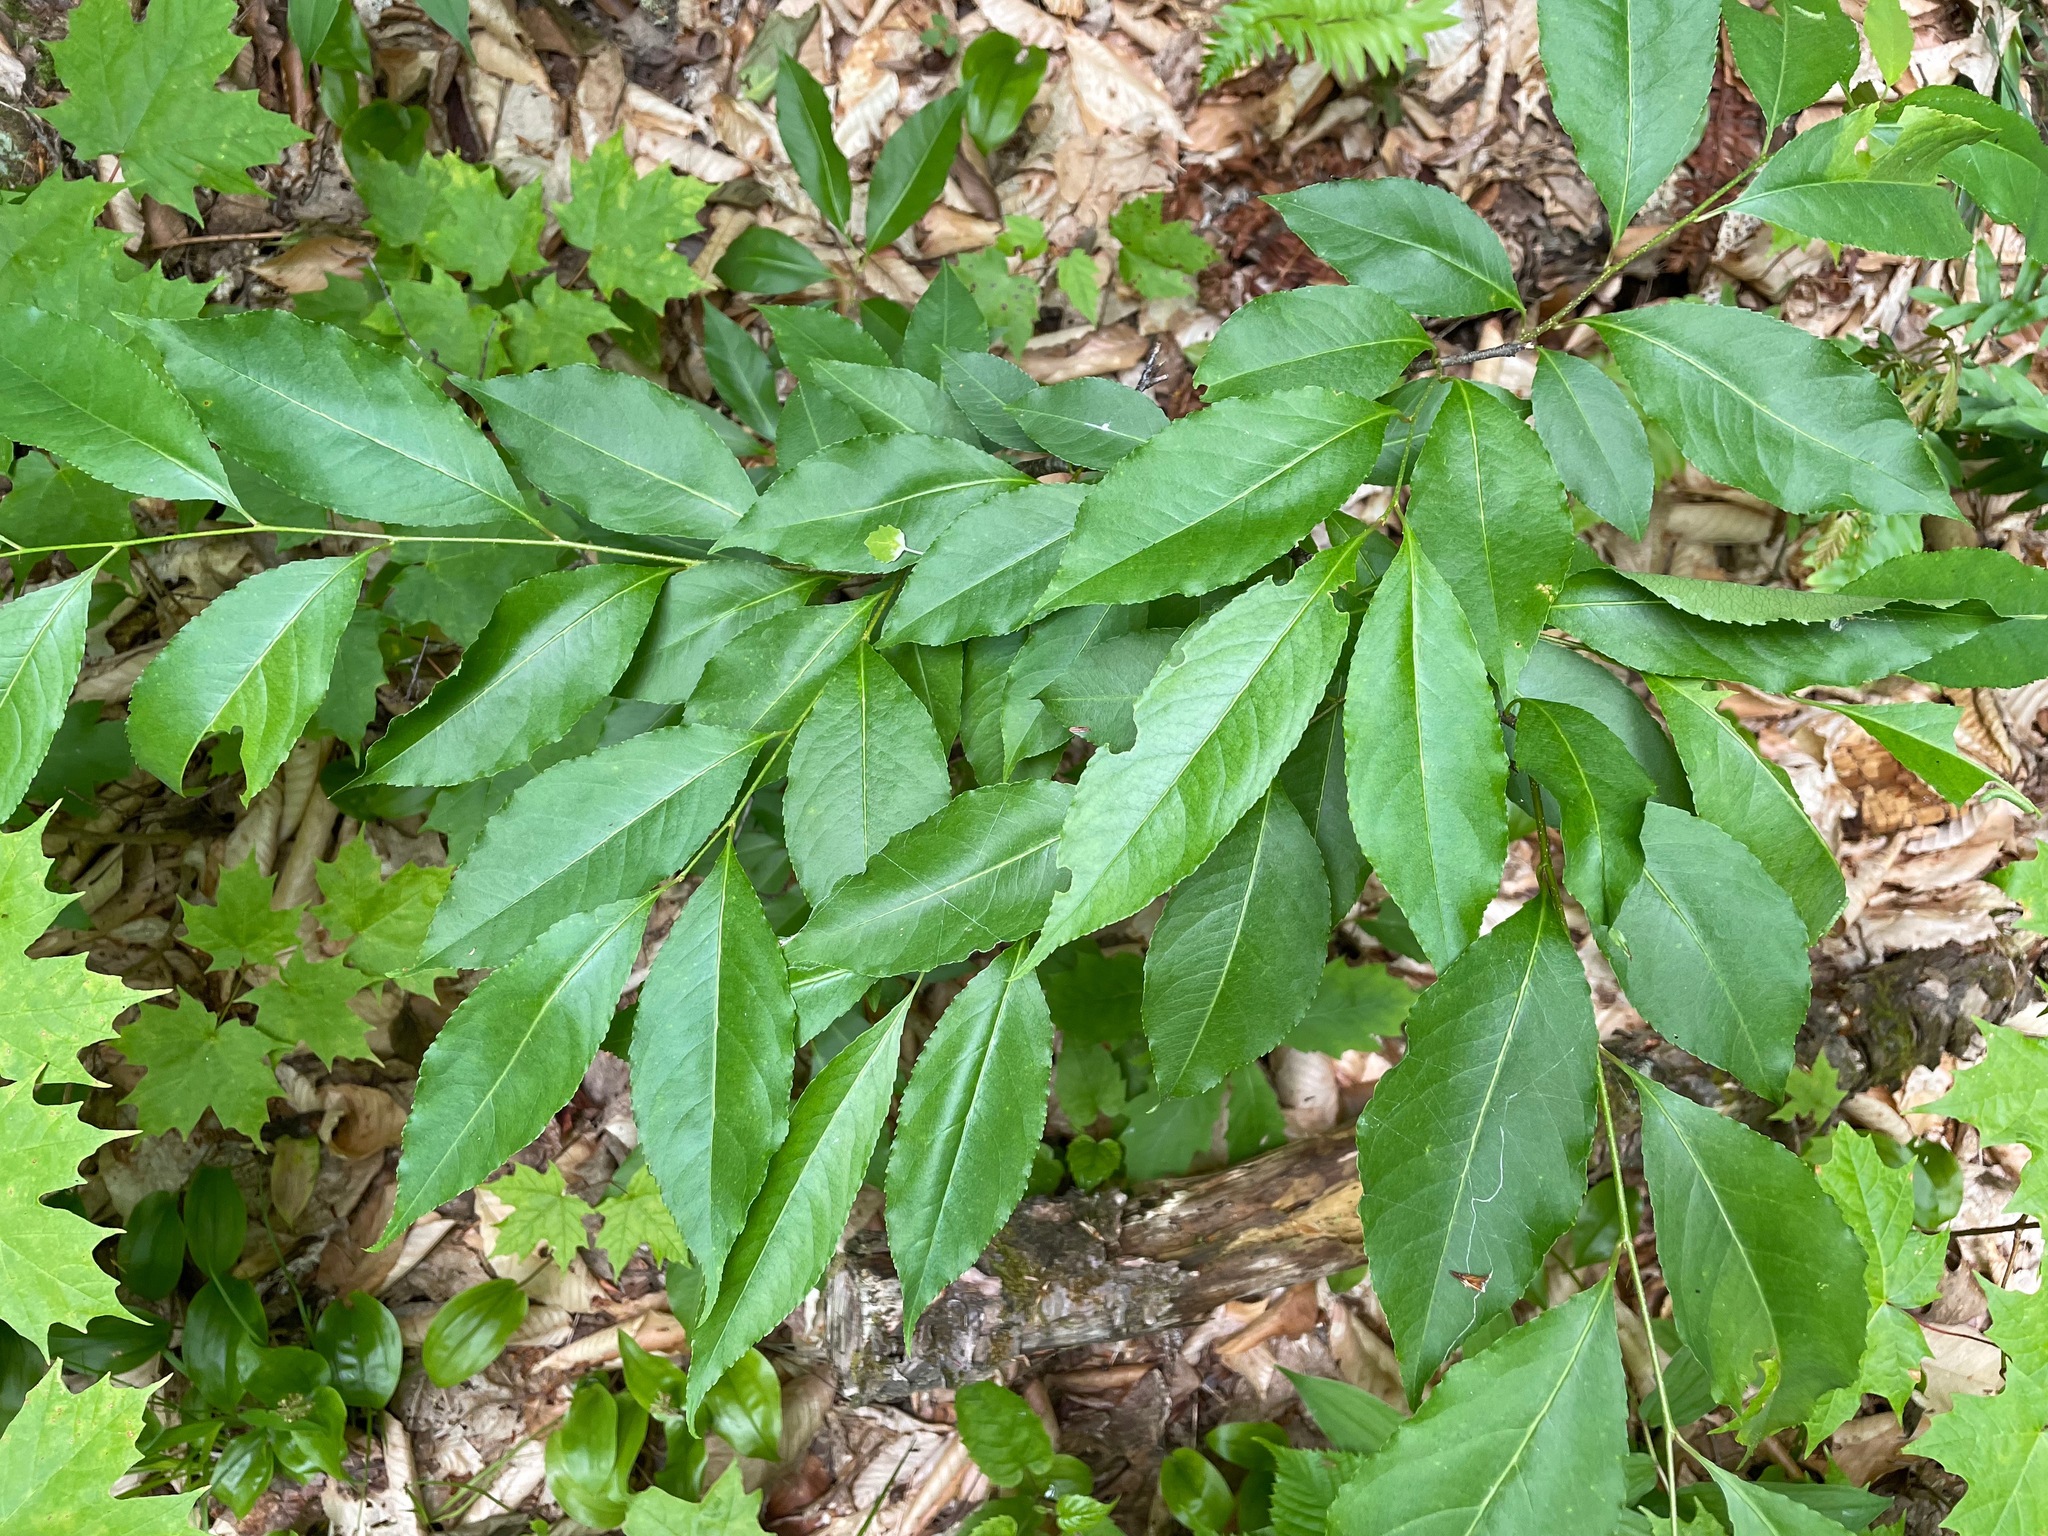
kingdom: Plantae
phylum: Tracheophyta
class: Magnoliopsida
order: Rosales
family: Rosaceae
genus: Prunus
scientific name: Prunus serotina
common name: Black cherry
